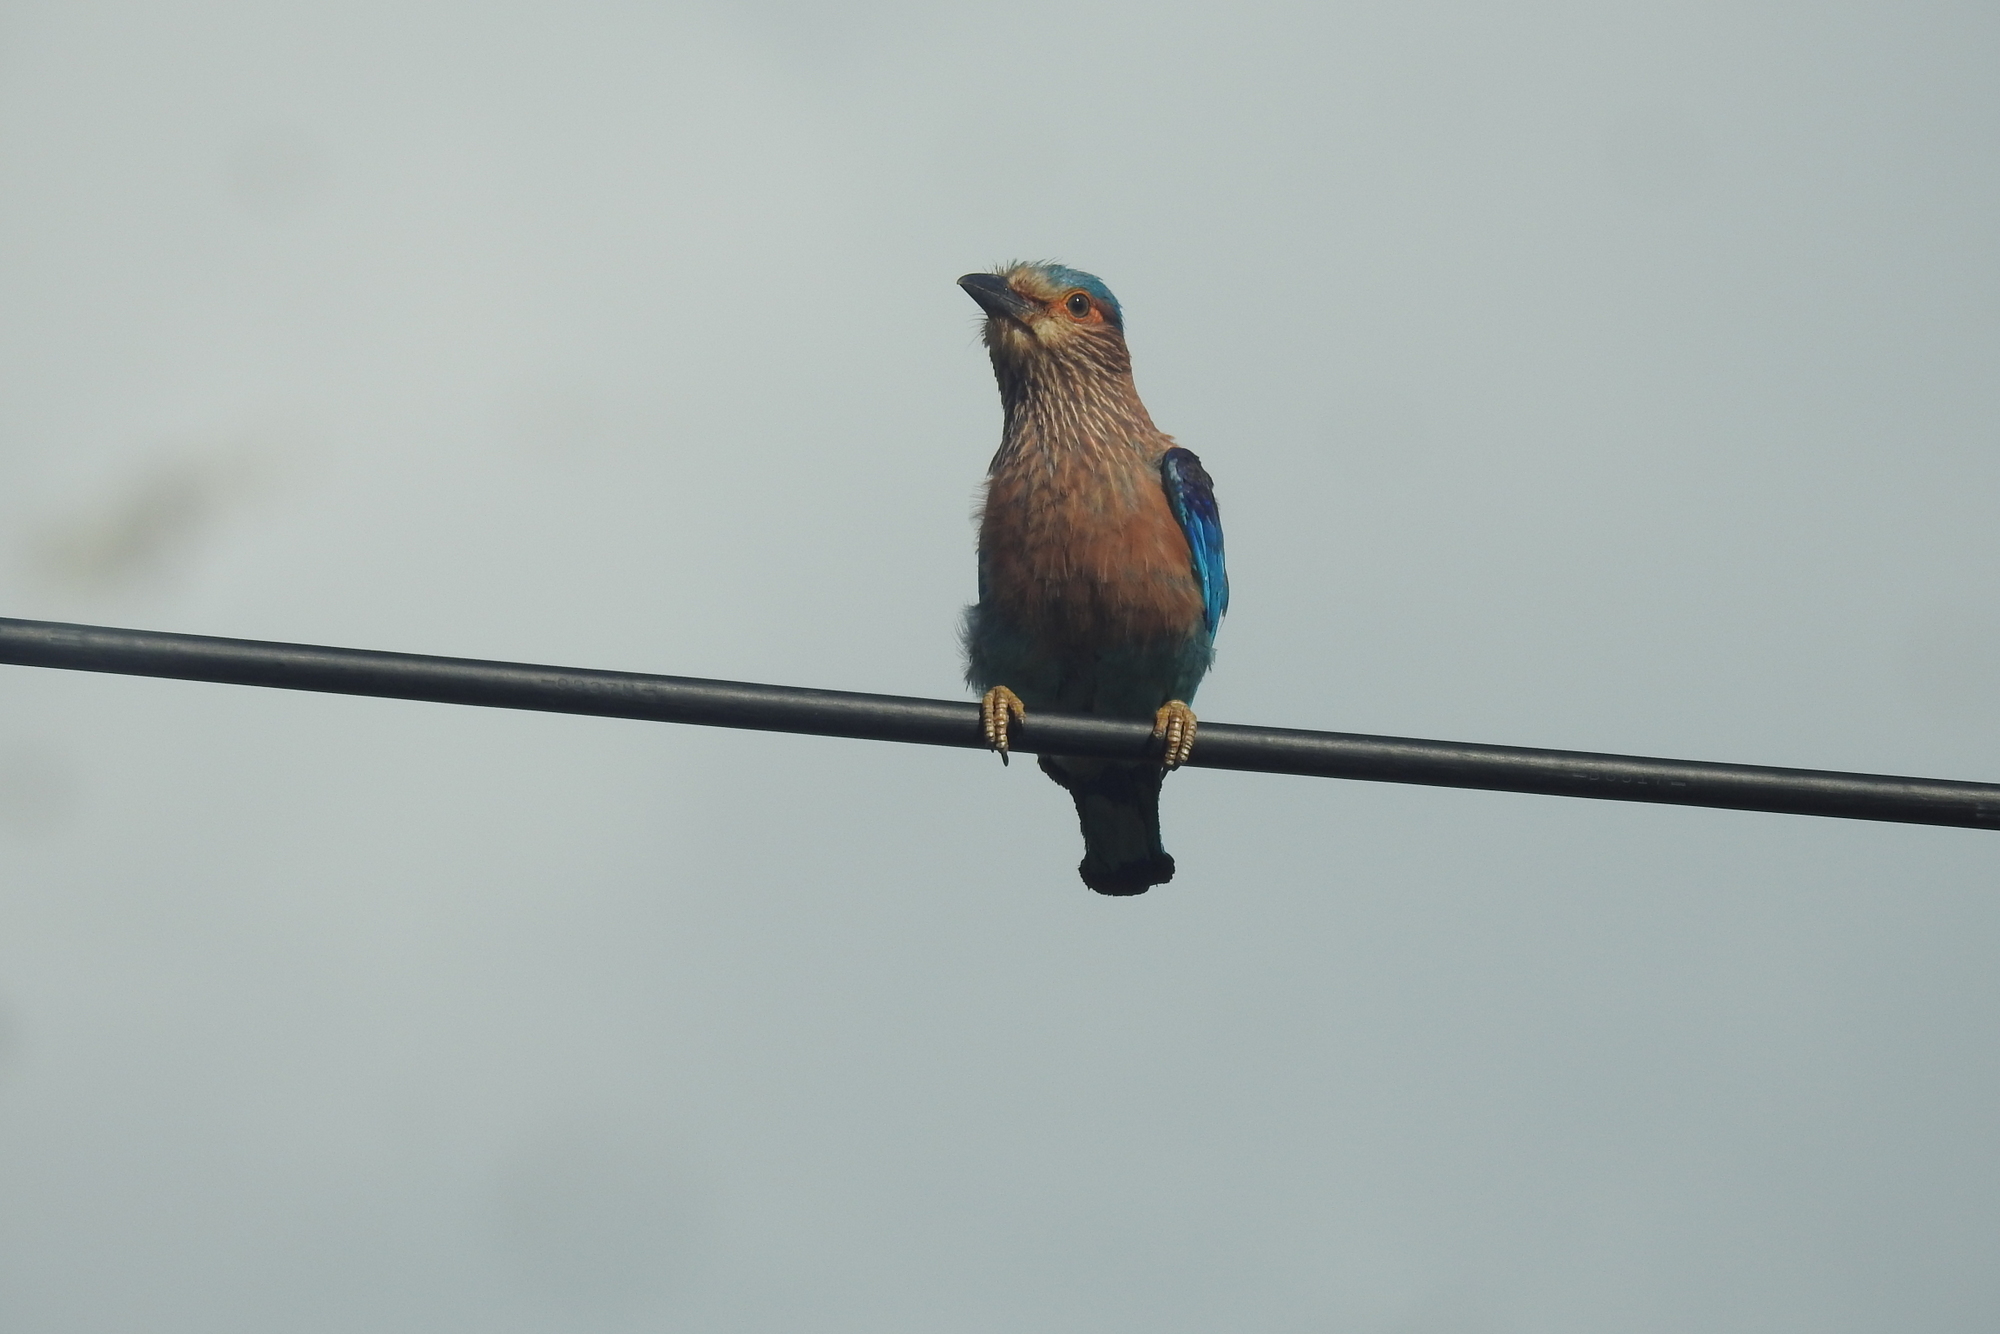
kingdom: Animalia
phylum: Chordata
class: Aves
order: Coraciiformes
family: Coraciidae
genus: Coracias
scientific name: Coracias benghalensis
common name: Indian roller
